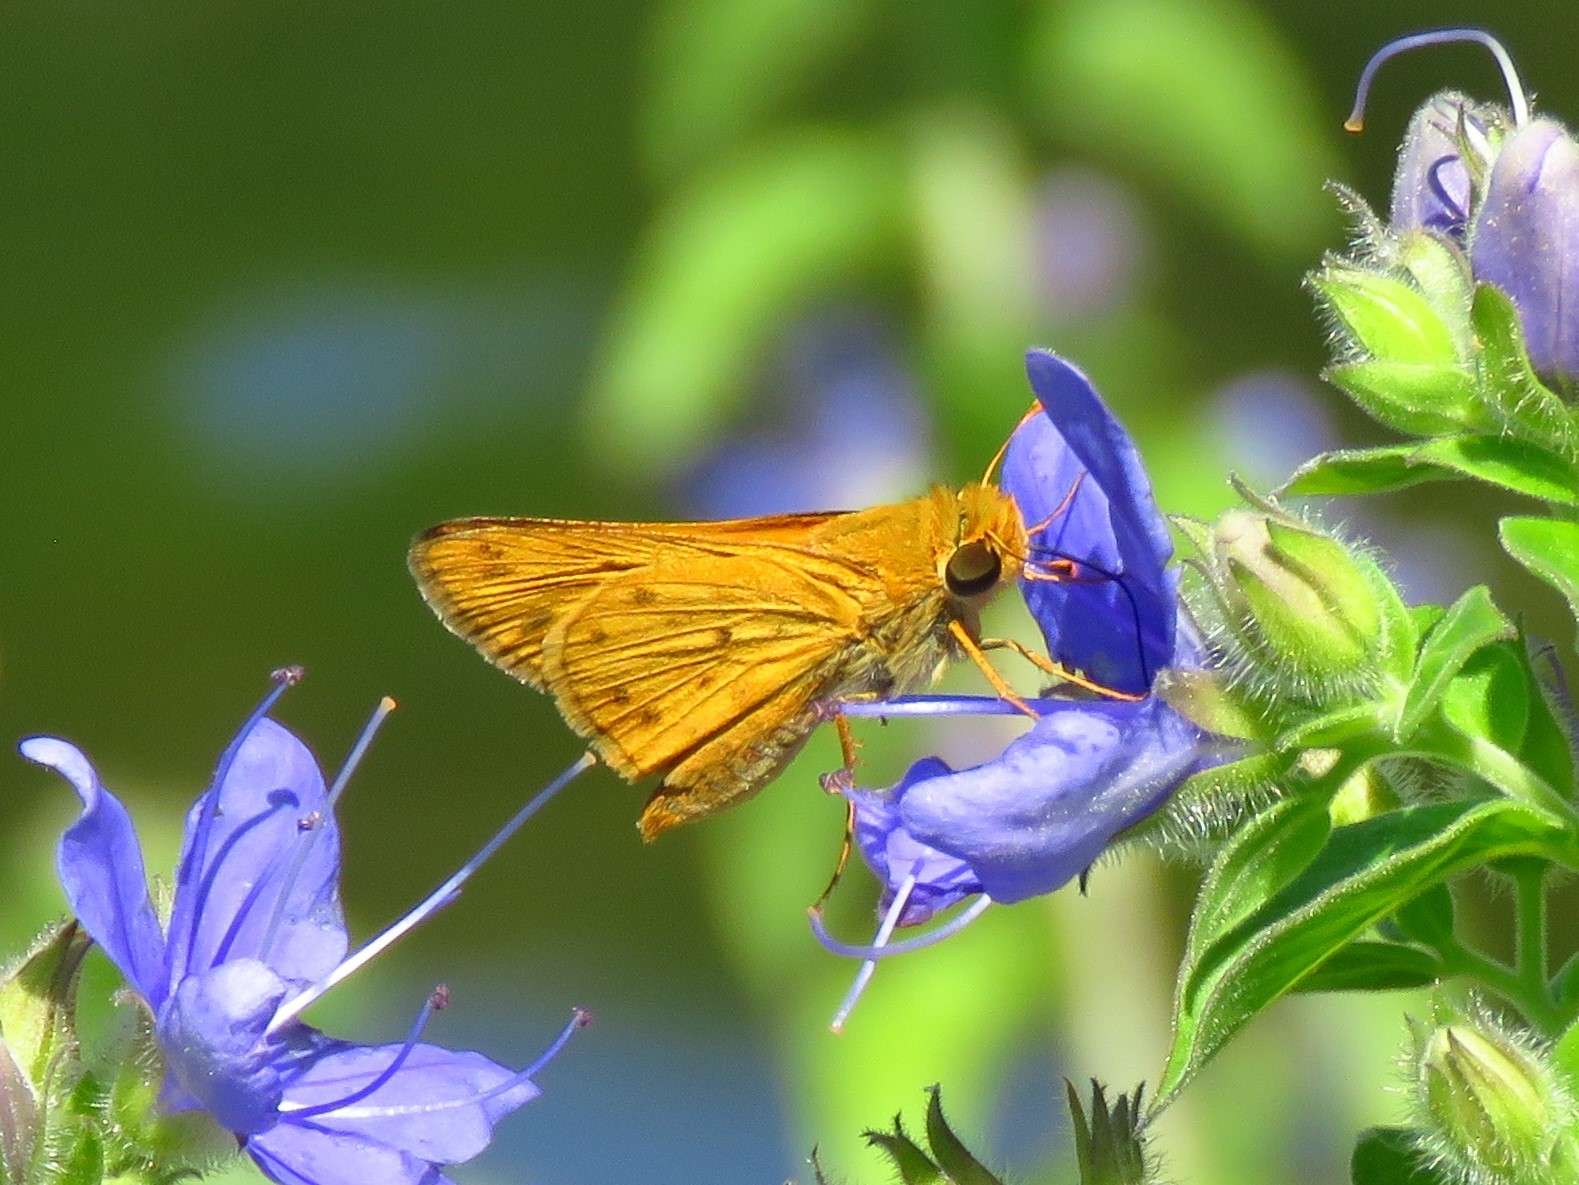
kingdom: Animalia
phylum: Arthropoda
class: Insecta
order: Lepidoptera
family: Hesperiidae
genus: Hylephila
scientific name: Hylephila phyleus
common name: Fiery skipper
